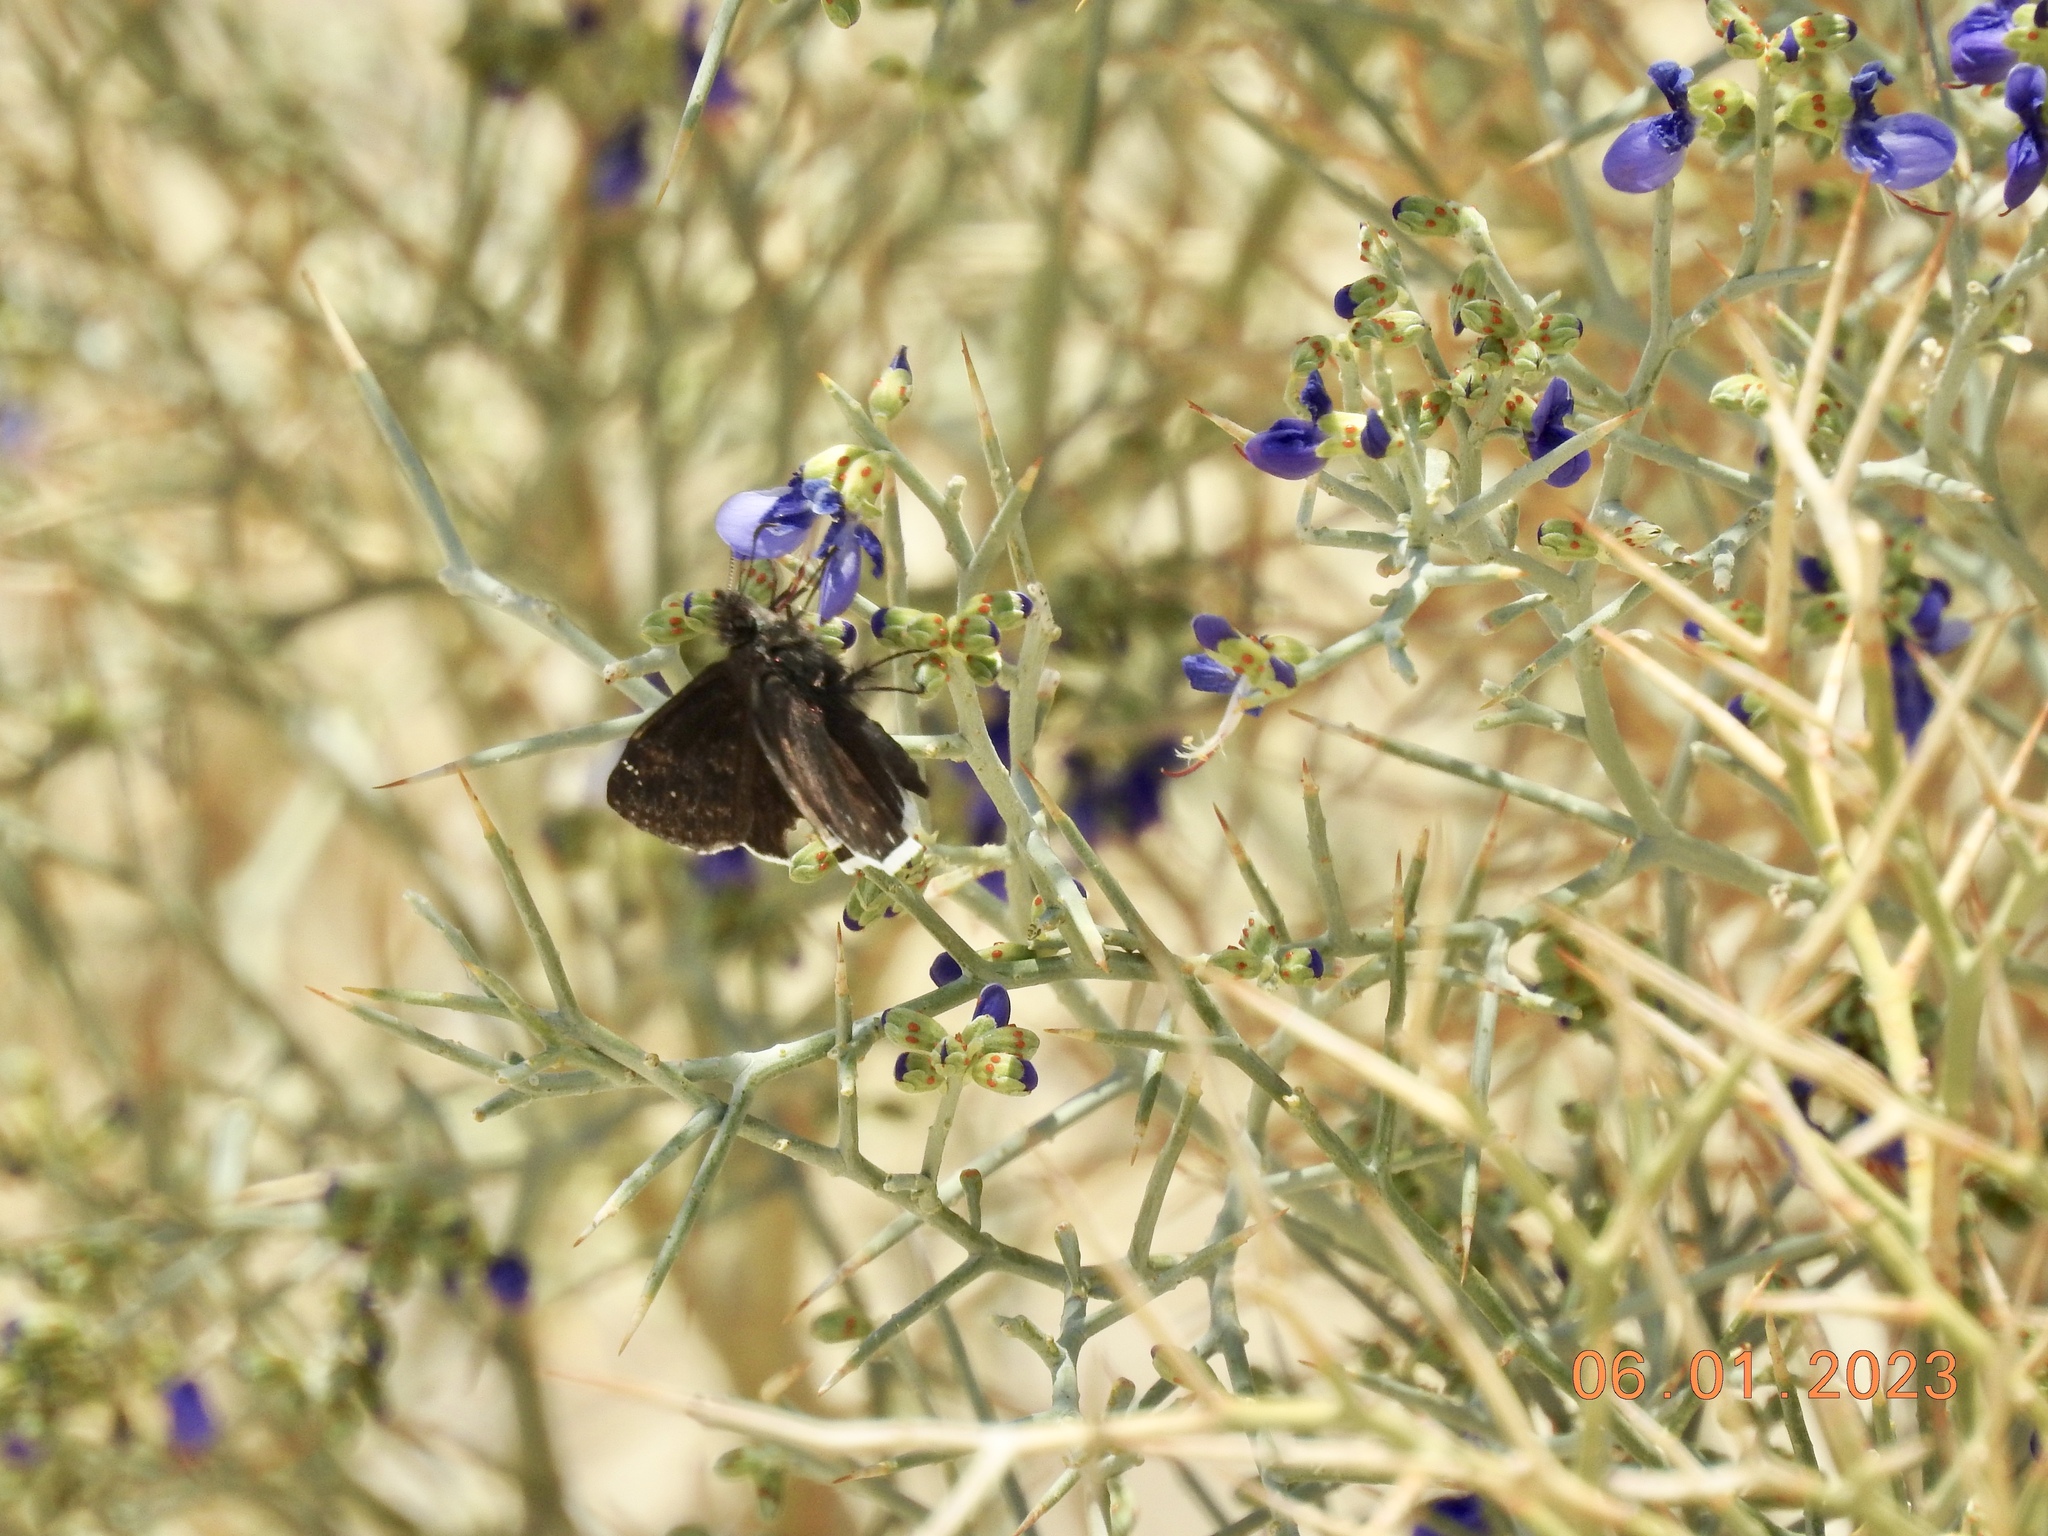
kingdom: Animalia
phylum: Arthropoda
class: Insecta
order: Lepidoptera
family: Hesperiidae
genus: Erynnis
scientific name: Erynnis funeralis
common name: Funereal duskywing
